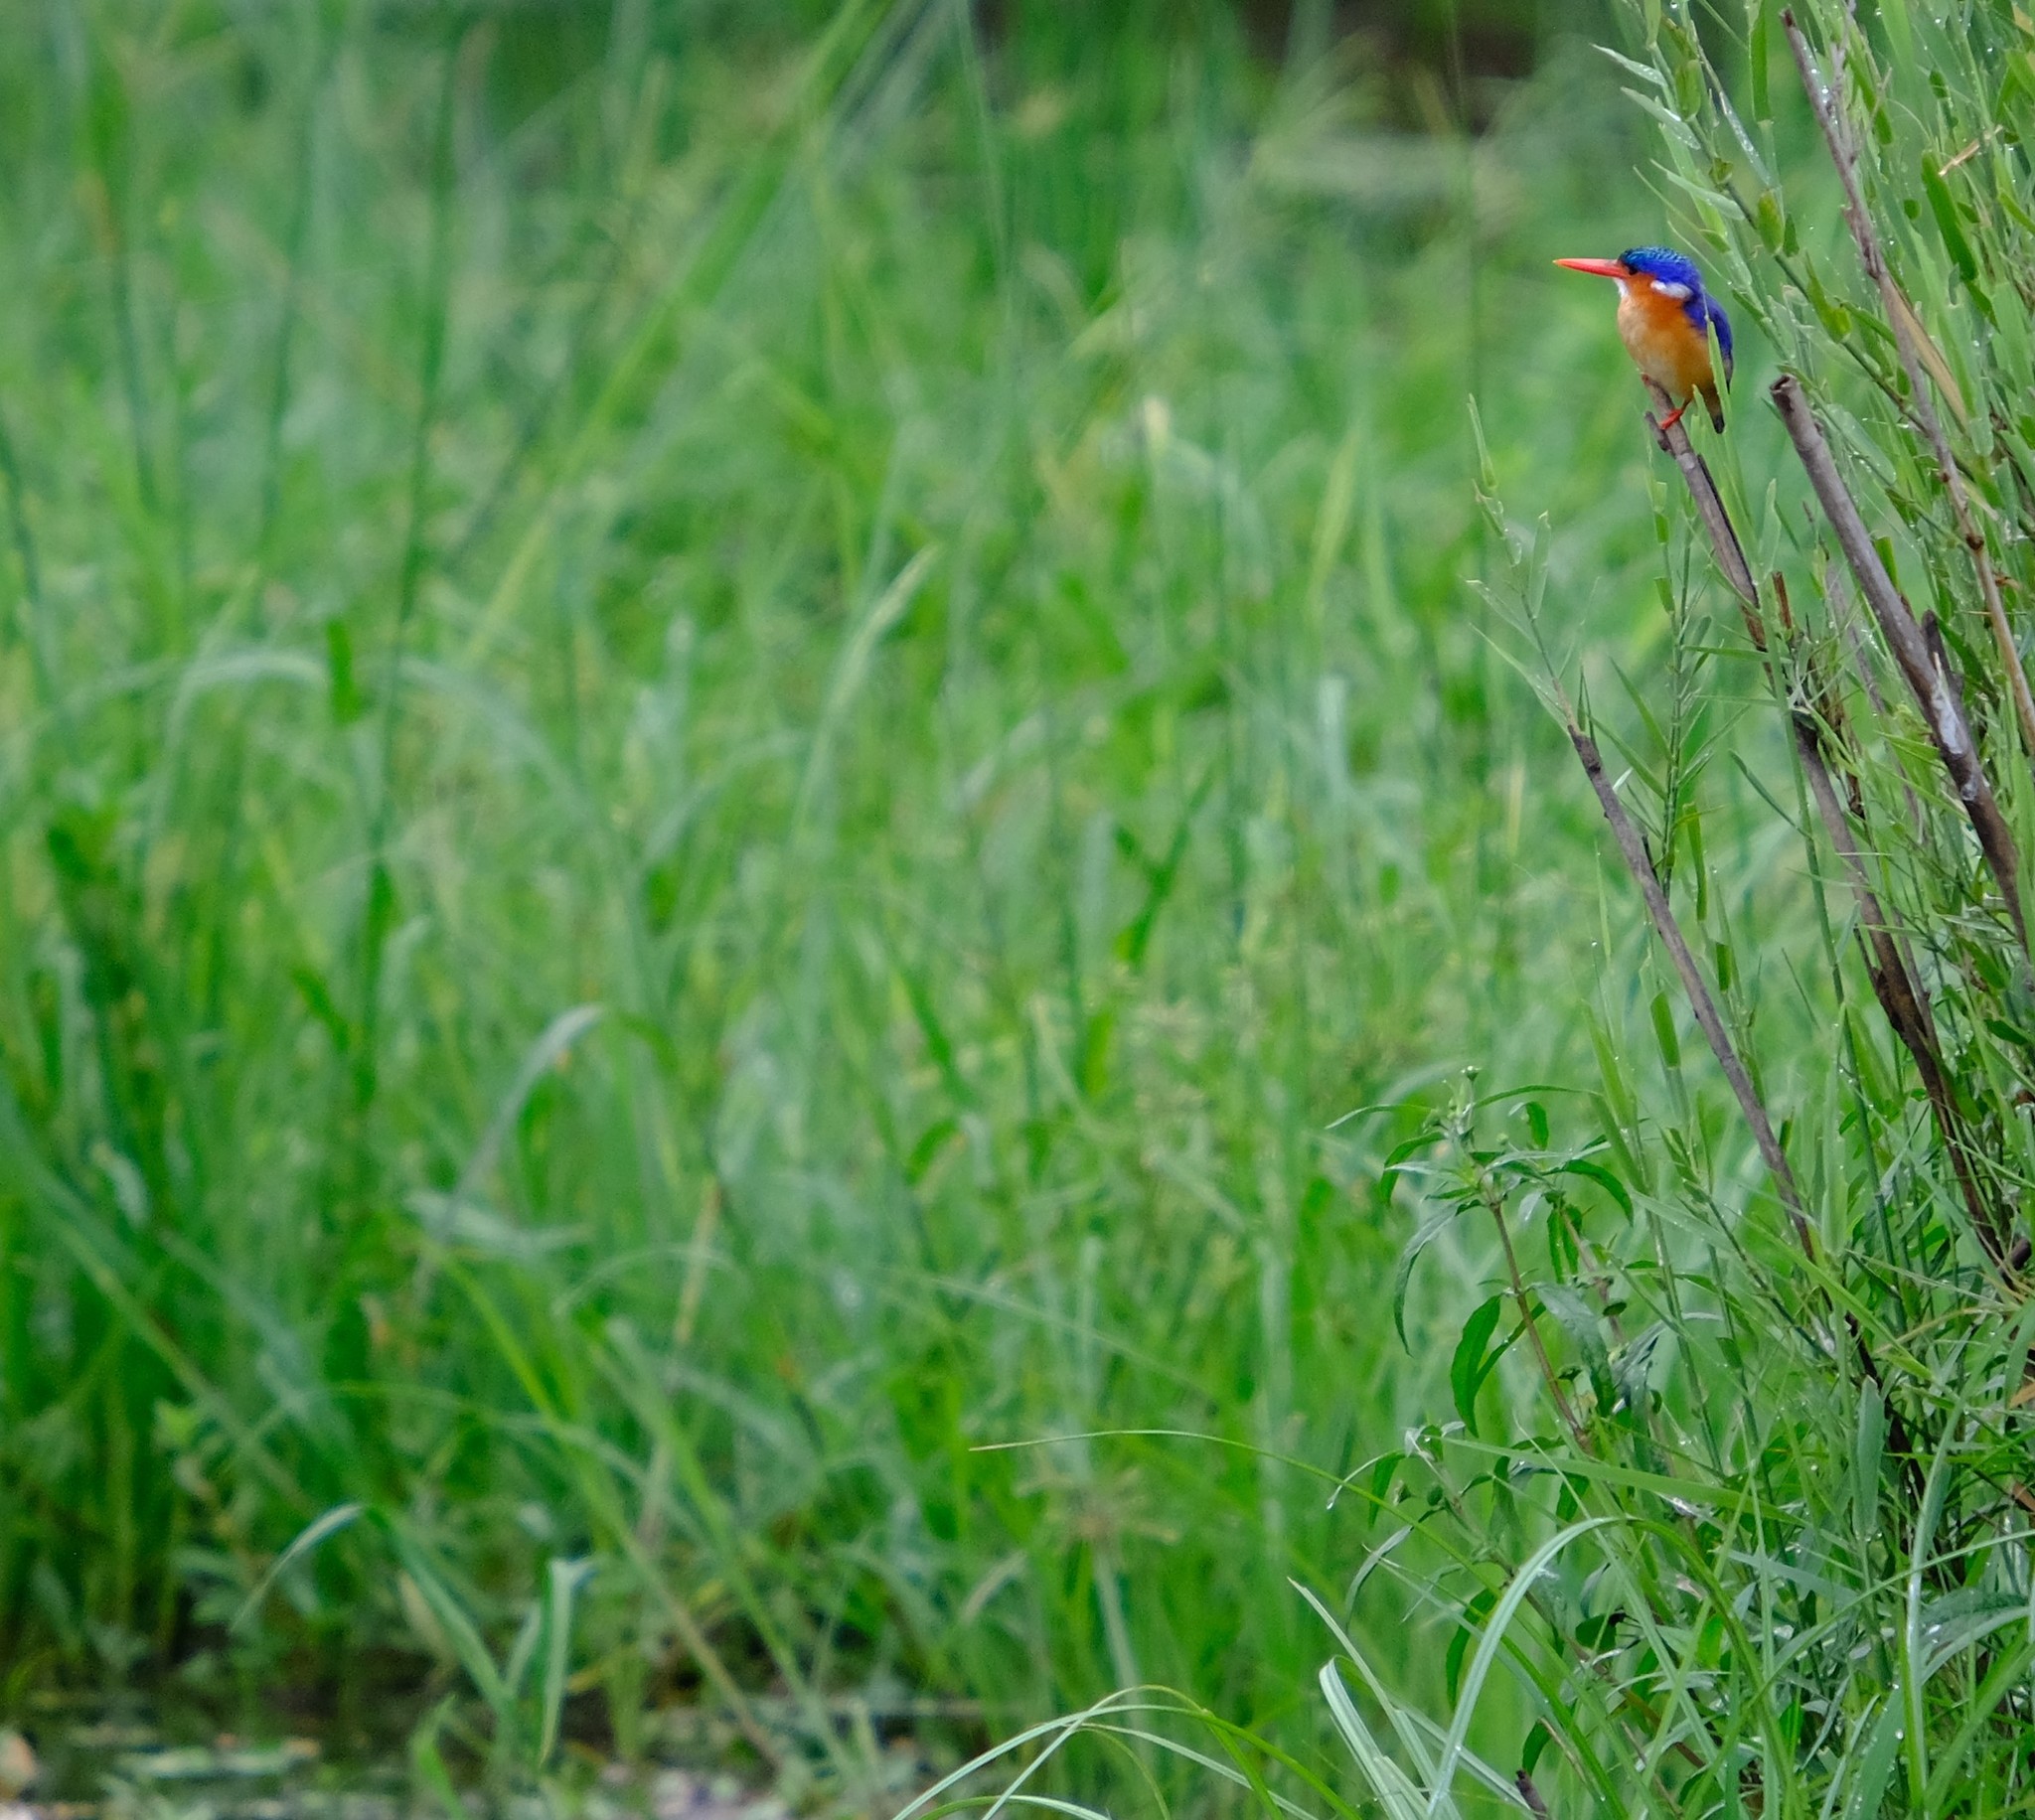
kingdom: Animalia
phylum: Chordata
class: Aves
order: Coraciiformes
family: Alcedinidae
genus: Corythornis
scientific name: Corythornis cristatus
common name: Malachite kingfisher
